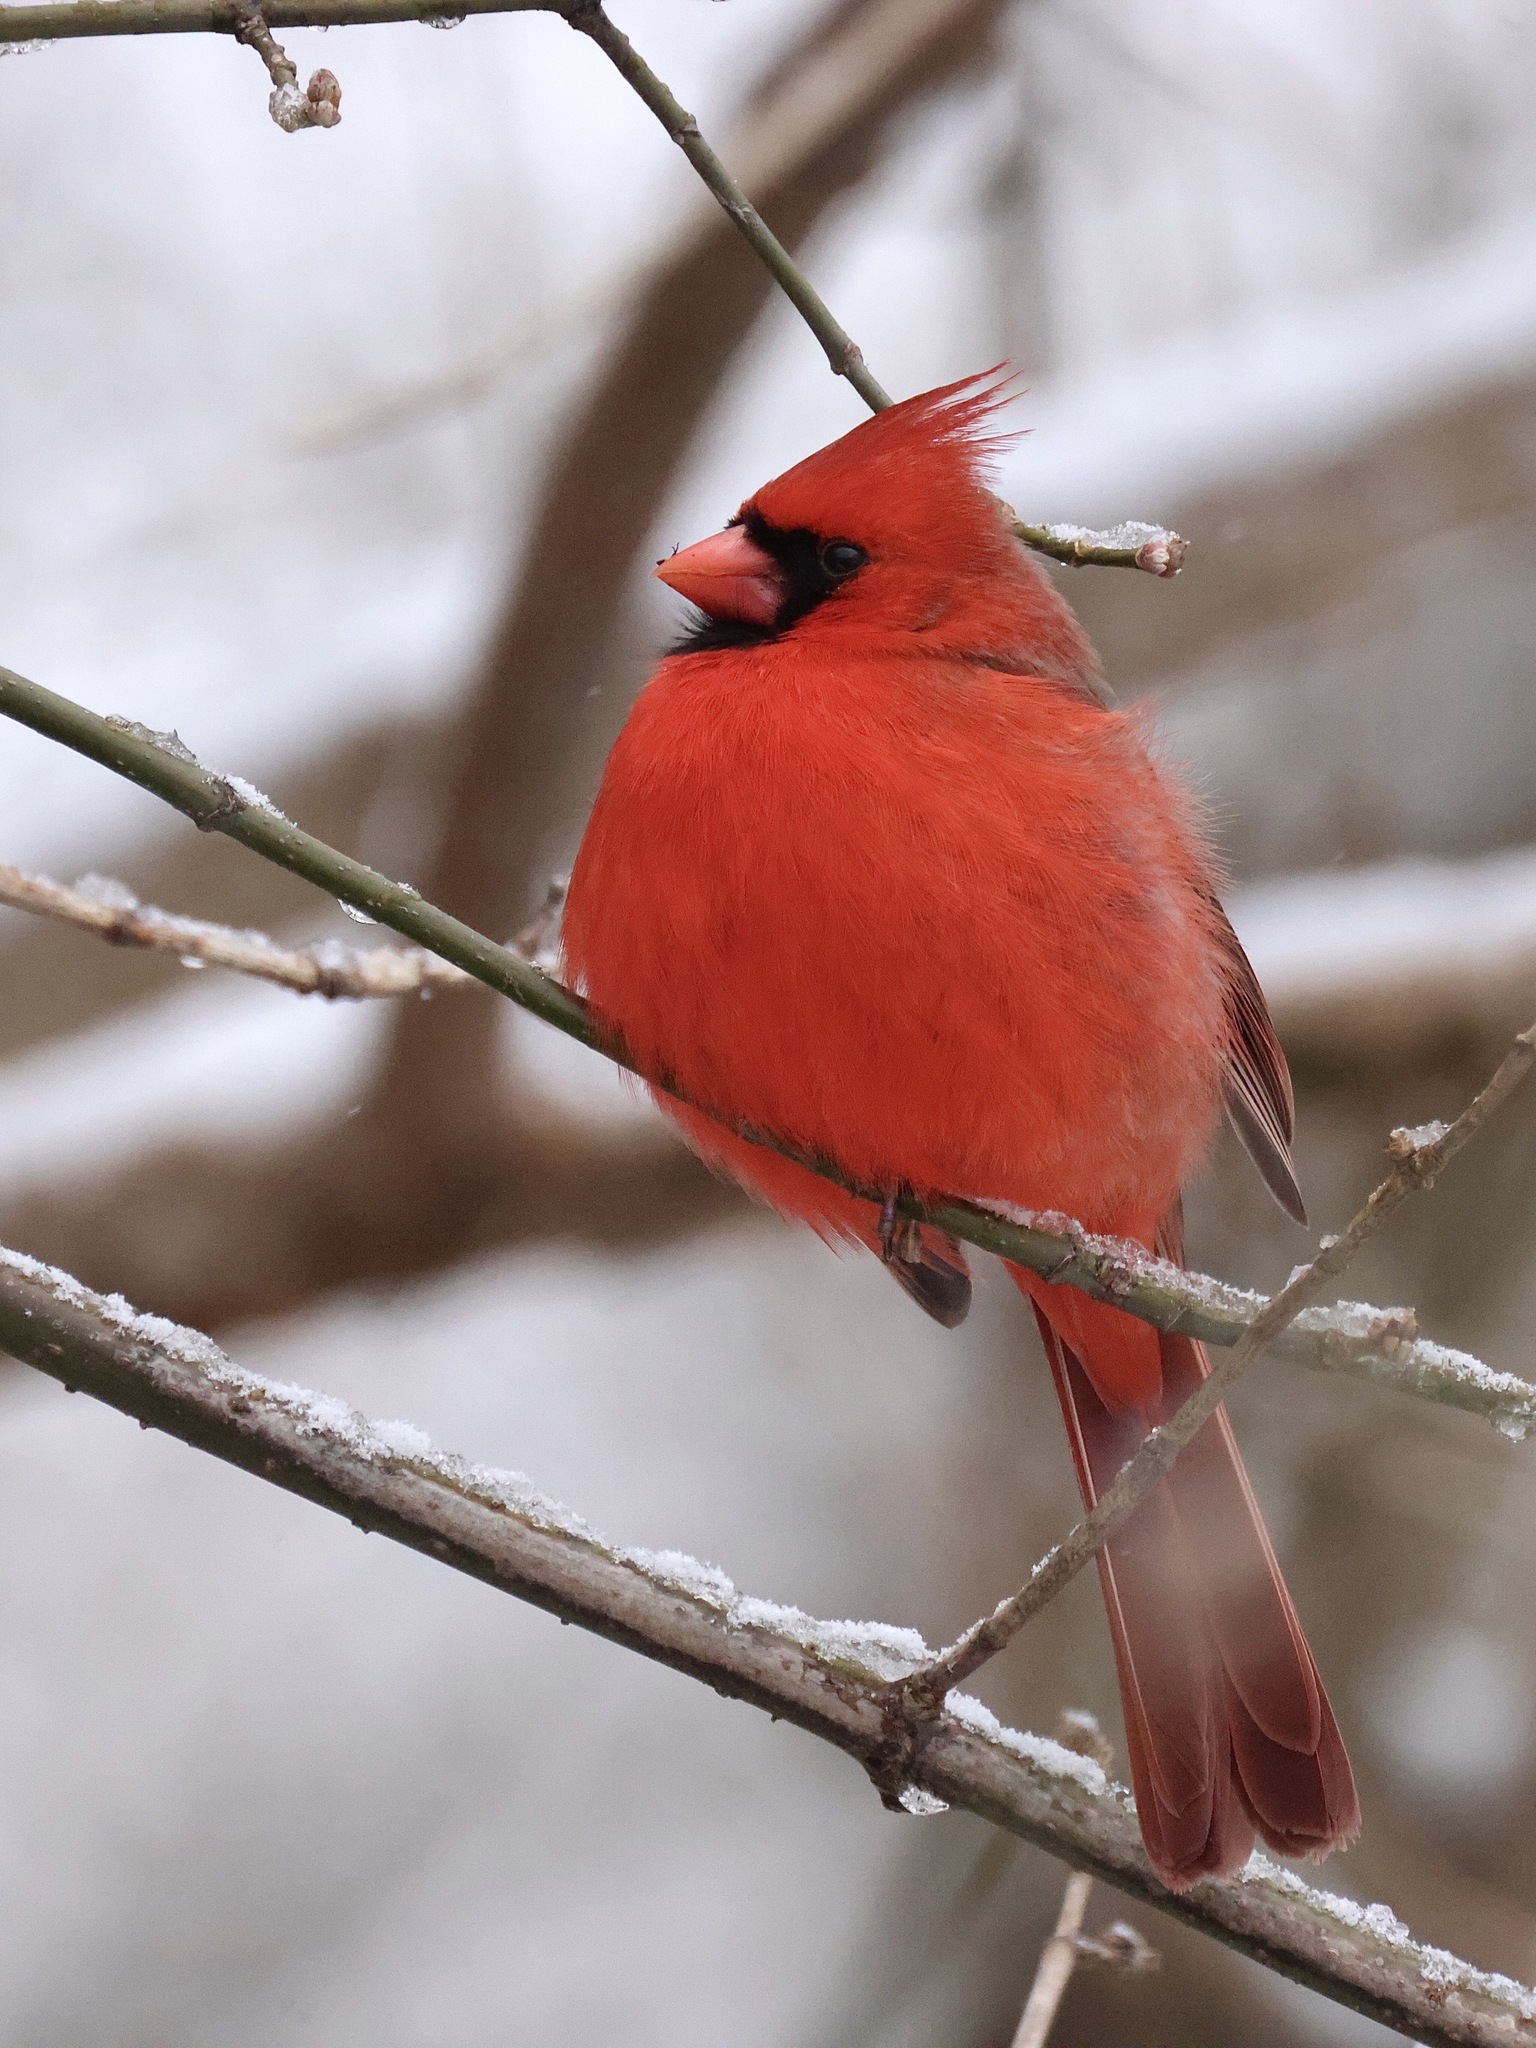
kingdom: Animalia
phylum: Chordata
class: Aves
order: Passeriformes
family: Cardinalidae
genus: Cardinalis
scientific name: Cardinalis cardinalis
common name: Northern cardinal
